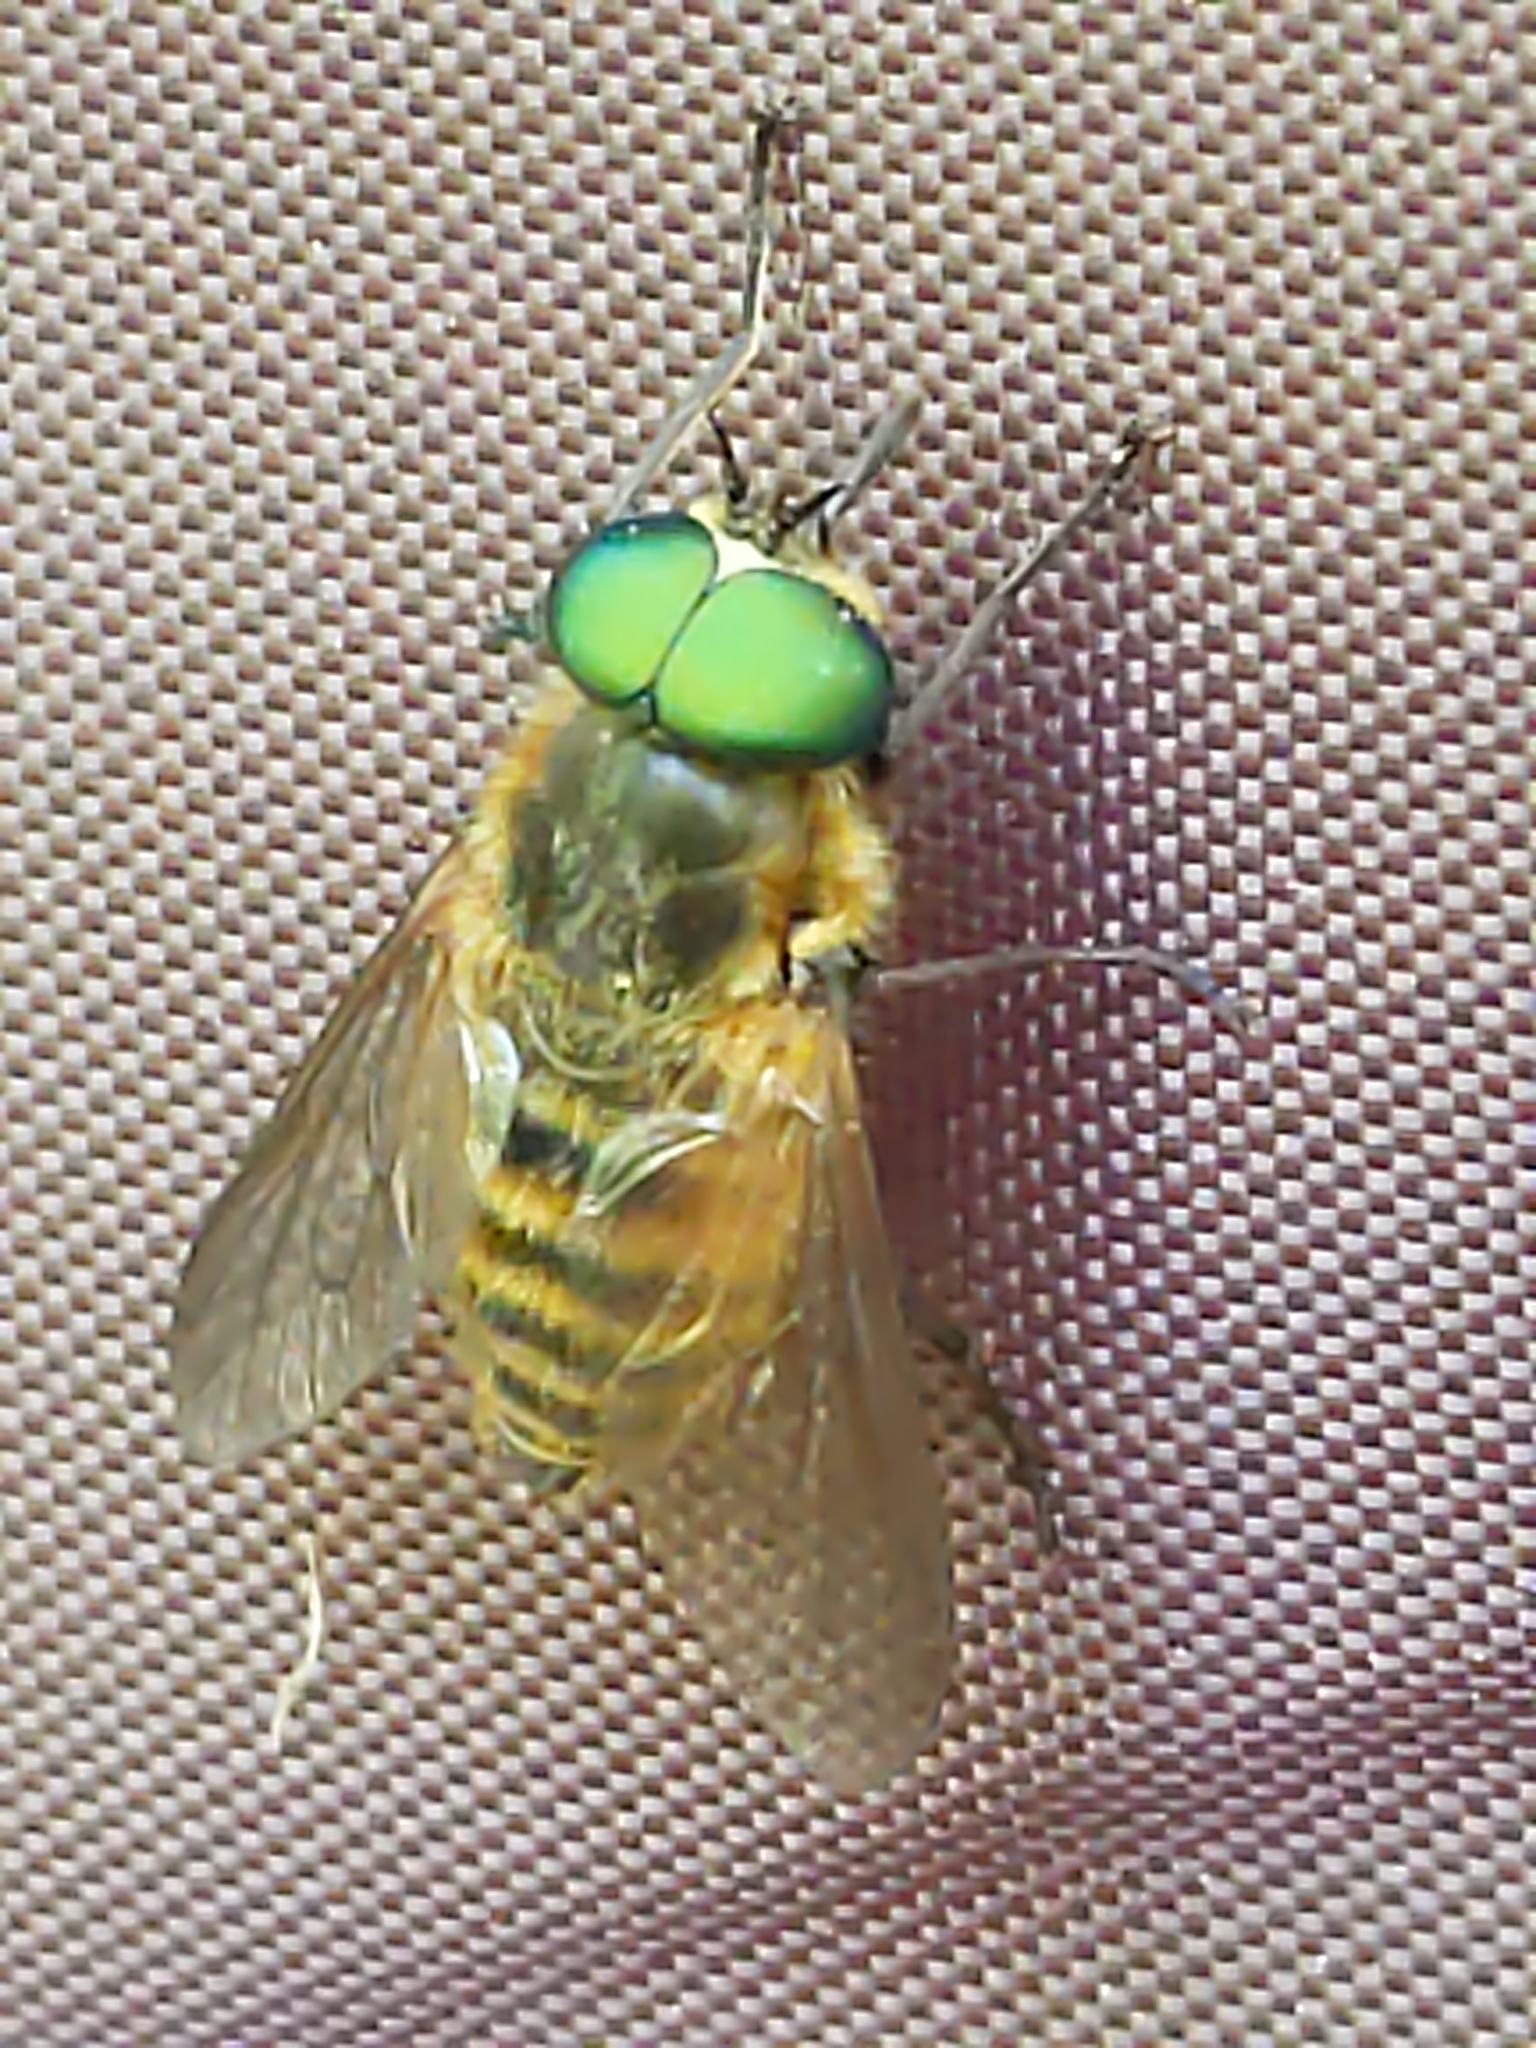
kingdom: Animalia
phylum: Arthropoda
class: Insecta
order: Diptera
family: Tabanidae
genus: Stonemyia
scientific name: Stonemyia tranquilla
